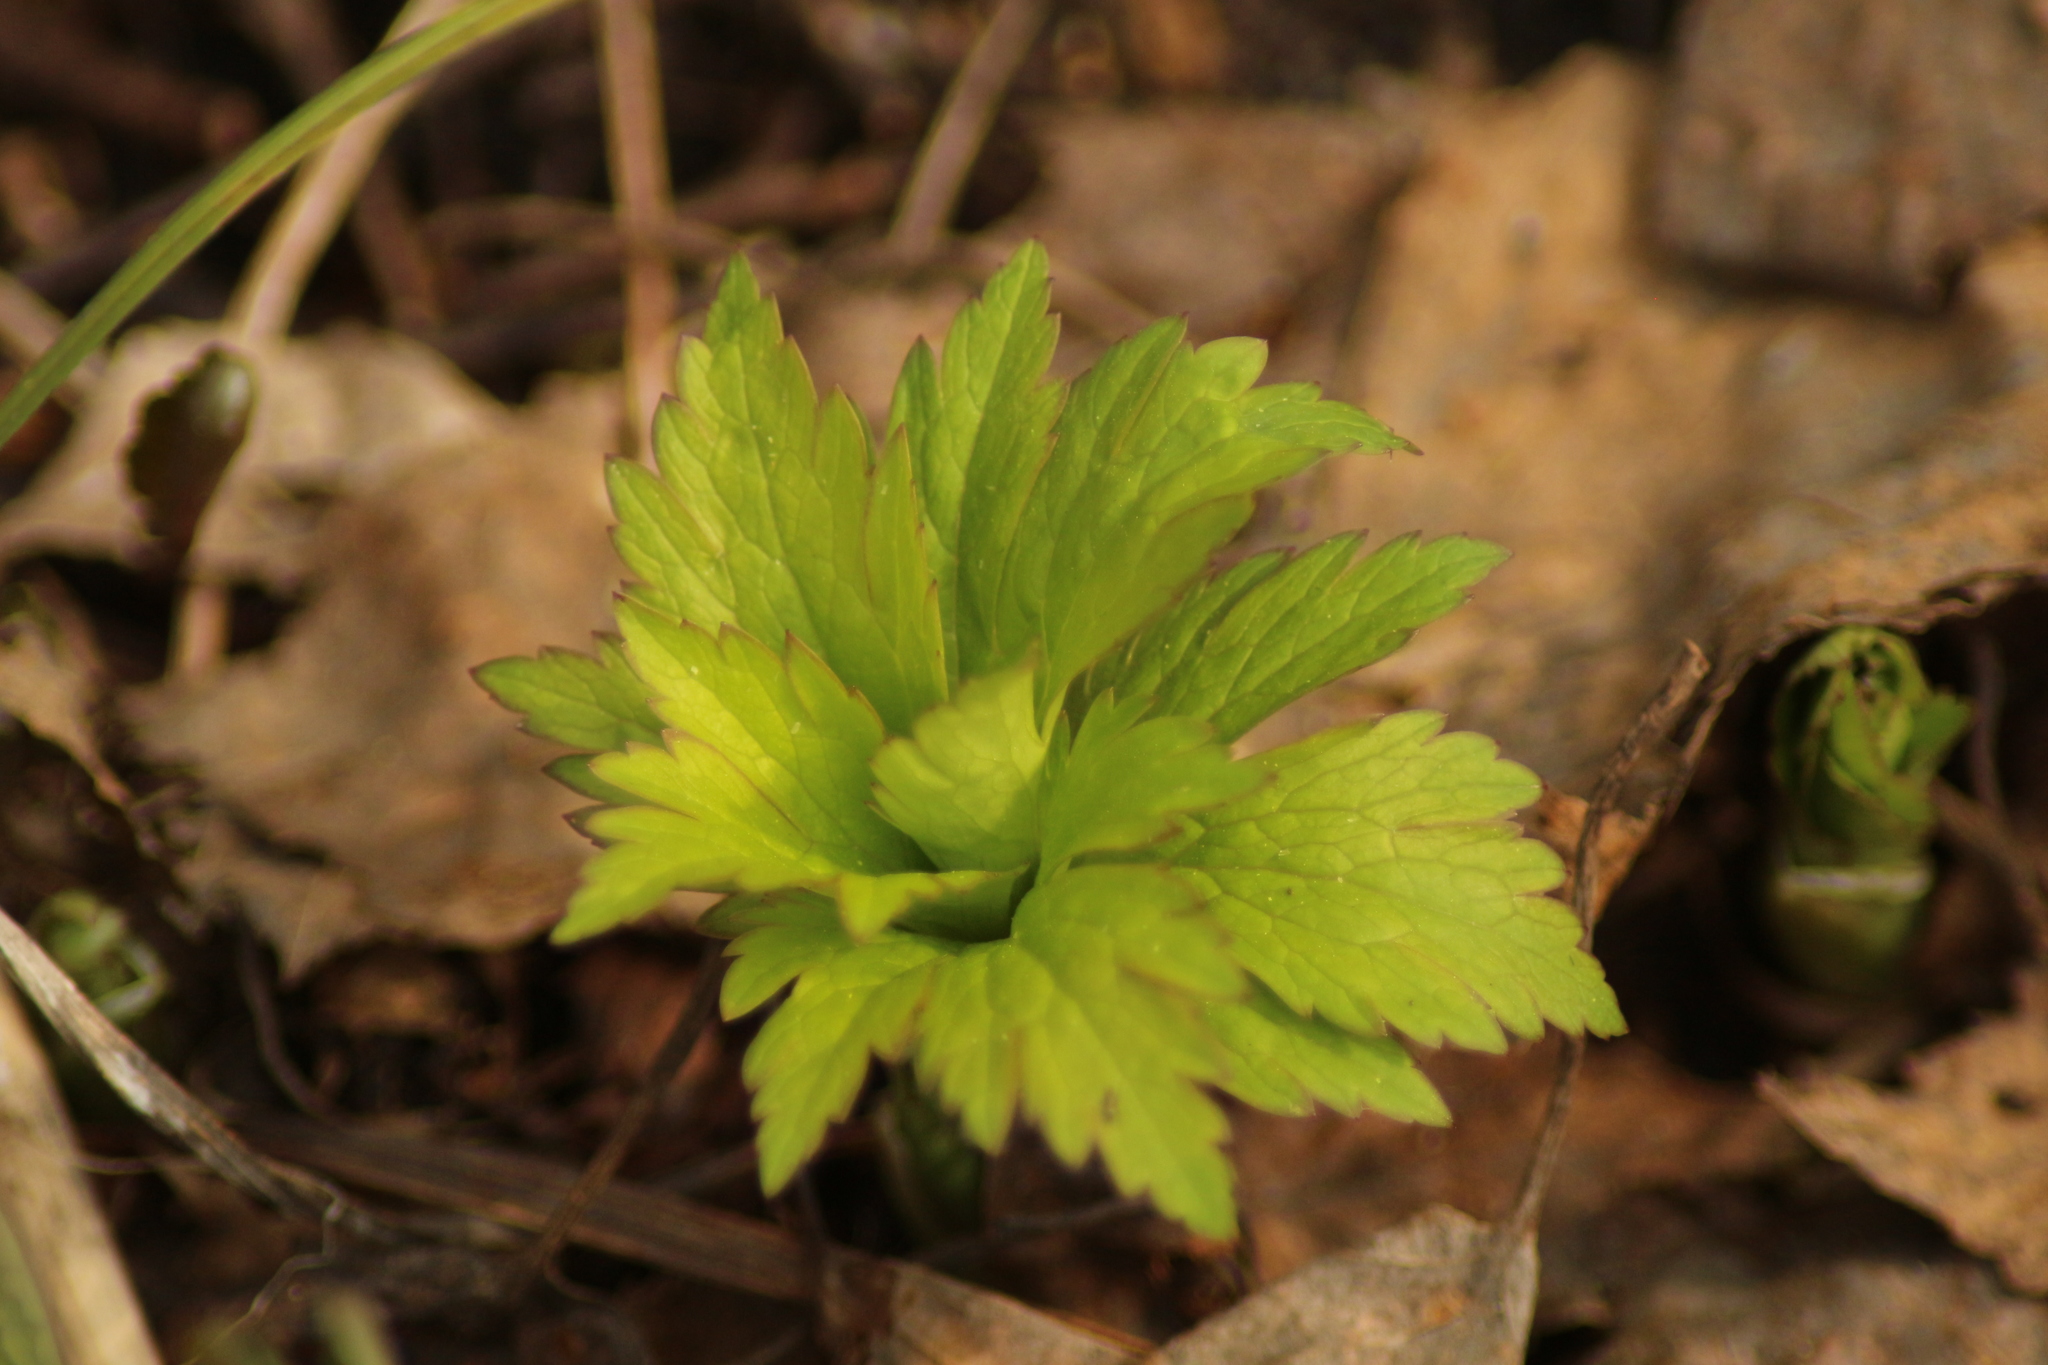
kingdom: Plantae
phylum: Tracheophyta
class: Magnoliopsida
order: Ranunculales
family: Ranunculaceae
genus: Trollius
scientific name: Trollius asiaticus
